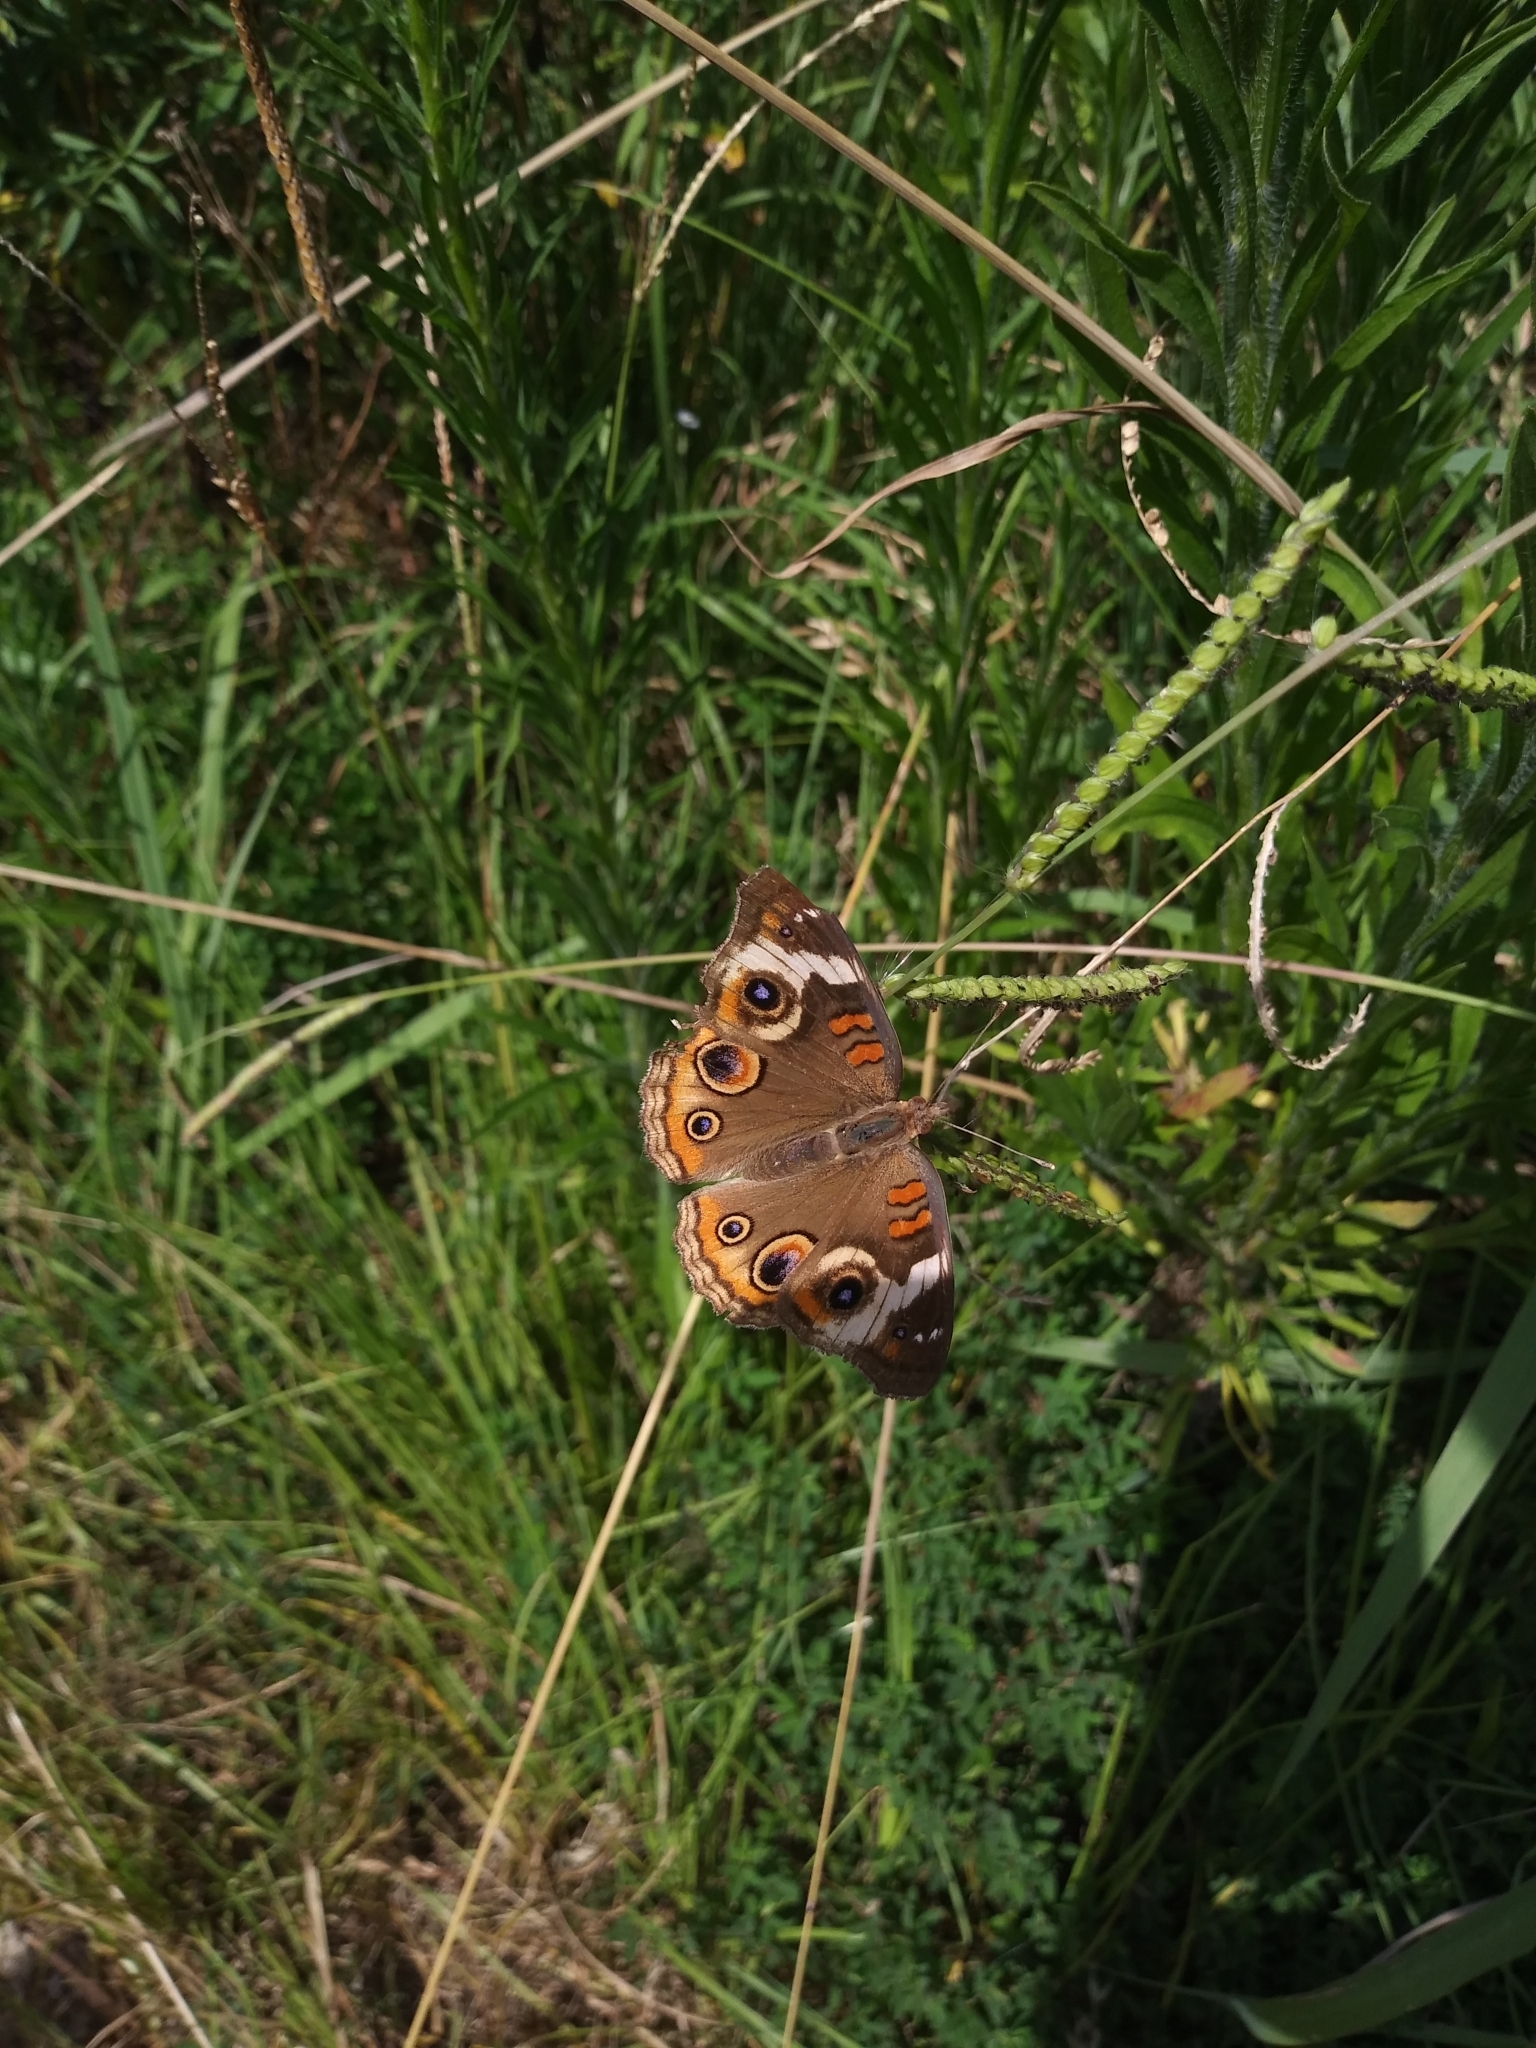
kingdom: Animalia
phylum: Arthropoda
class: Insecta
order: Lepidoptera
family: Nymphalidae
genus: Junonia
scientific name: Junonia coenia
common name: Common buckeye
